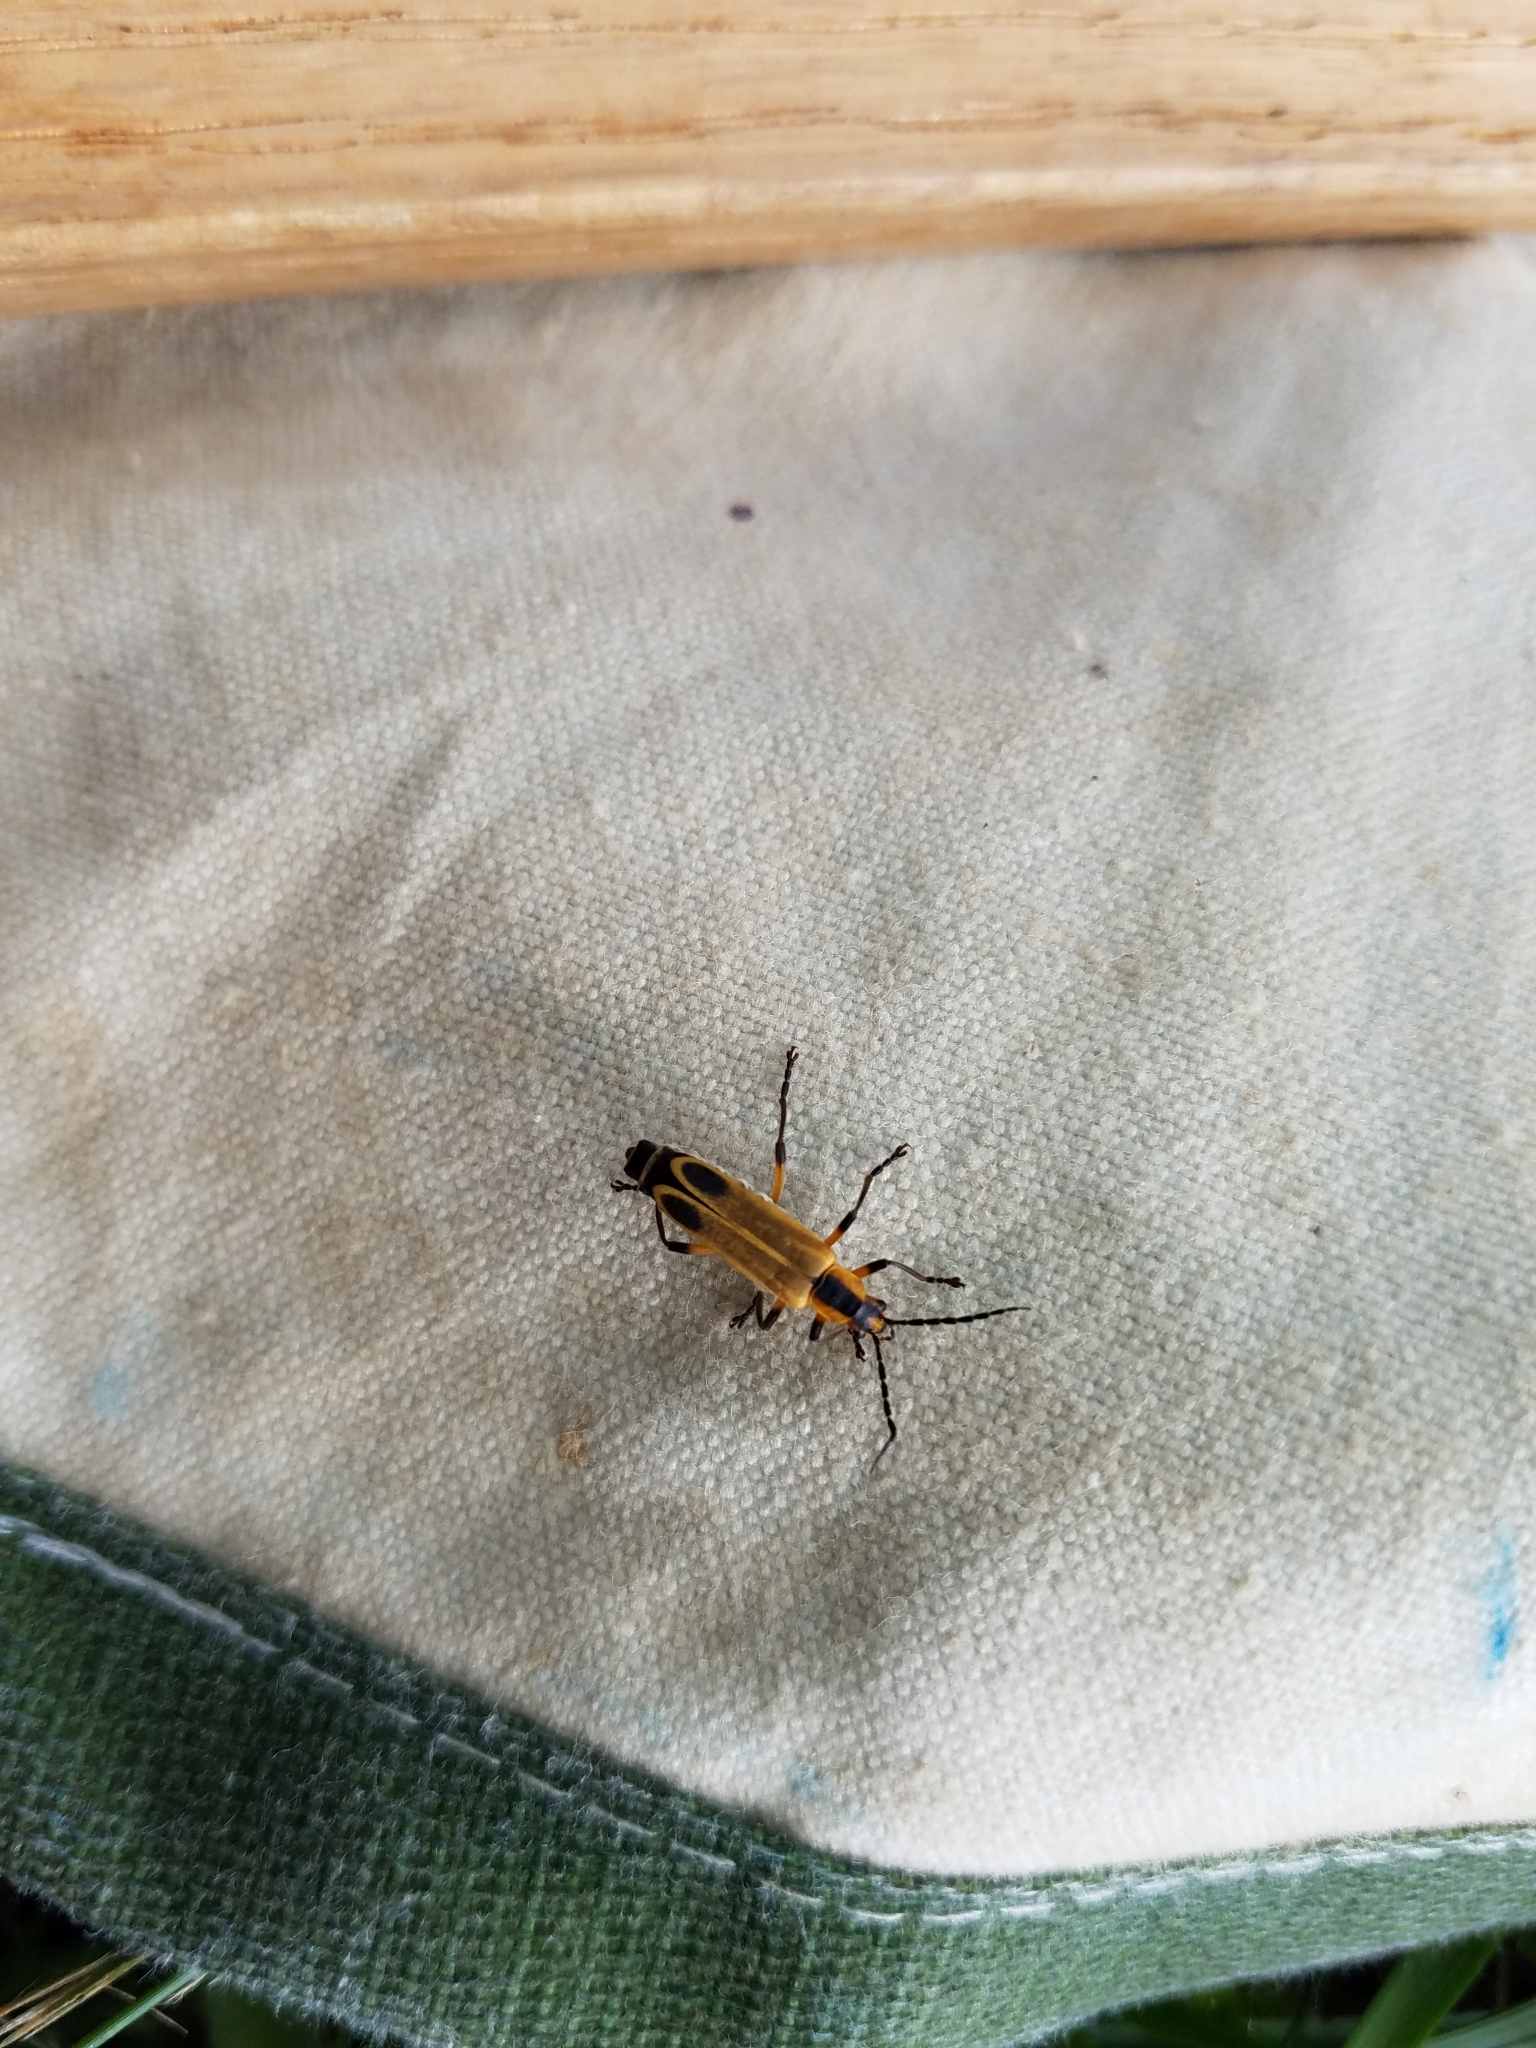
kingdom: Animalia
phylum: Arthropoda
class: Insecta
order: Coleoptera
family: Cantharidae
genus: Chauliognathus
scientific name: Chauliognathus marginatus
